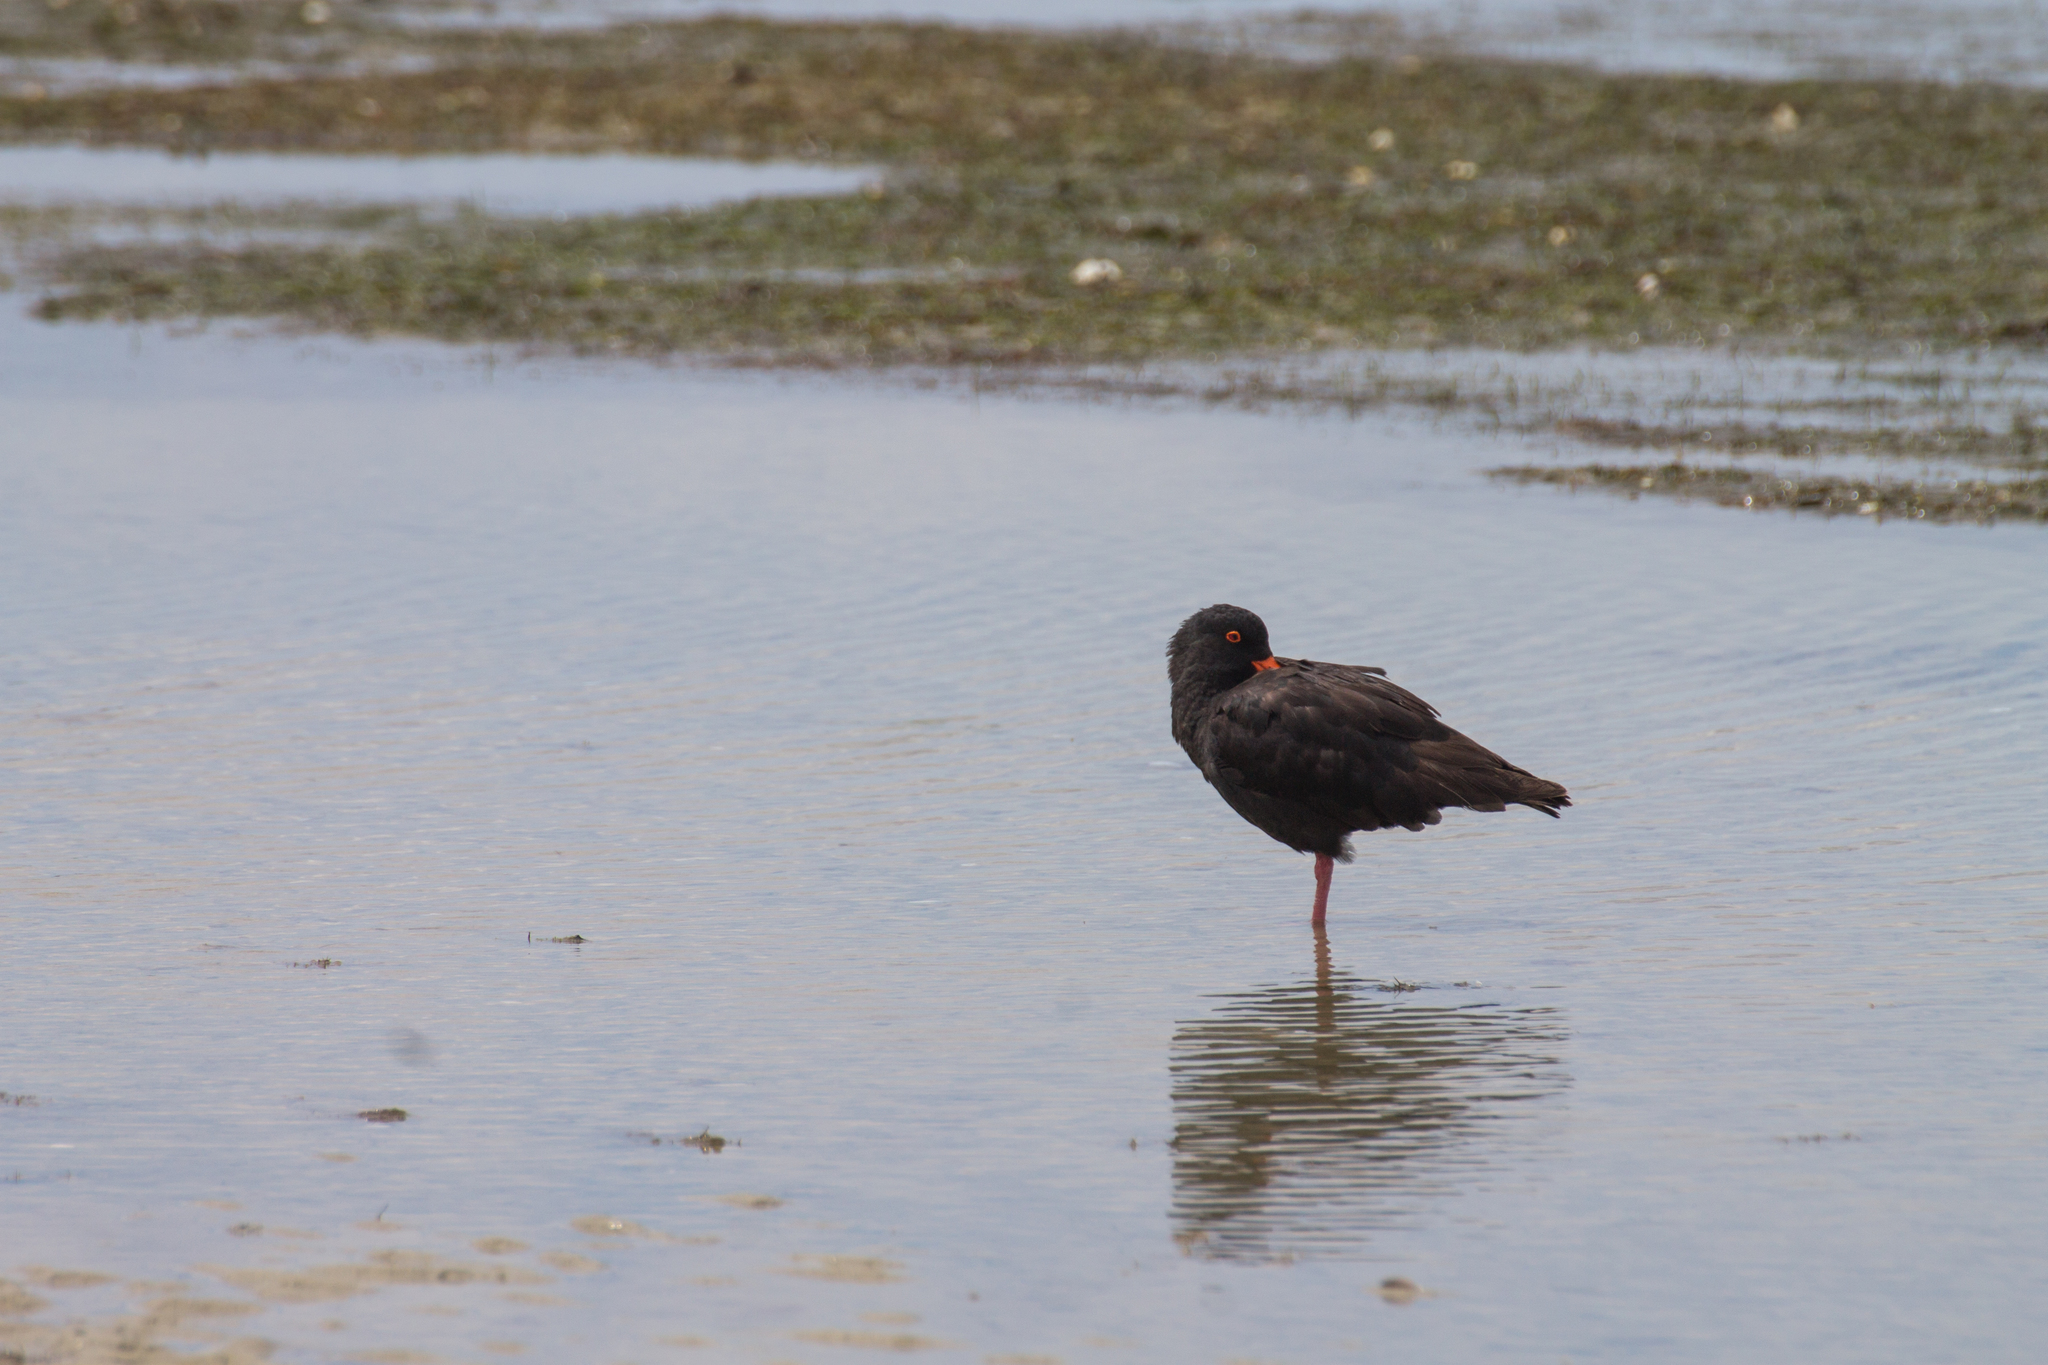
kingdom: Animalia
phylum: Chordata
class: Aves
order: Charadriiformes
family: Haematopodidae
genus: Haematopus
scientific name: Haematopus unicolor
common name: Variable oystercatcher
